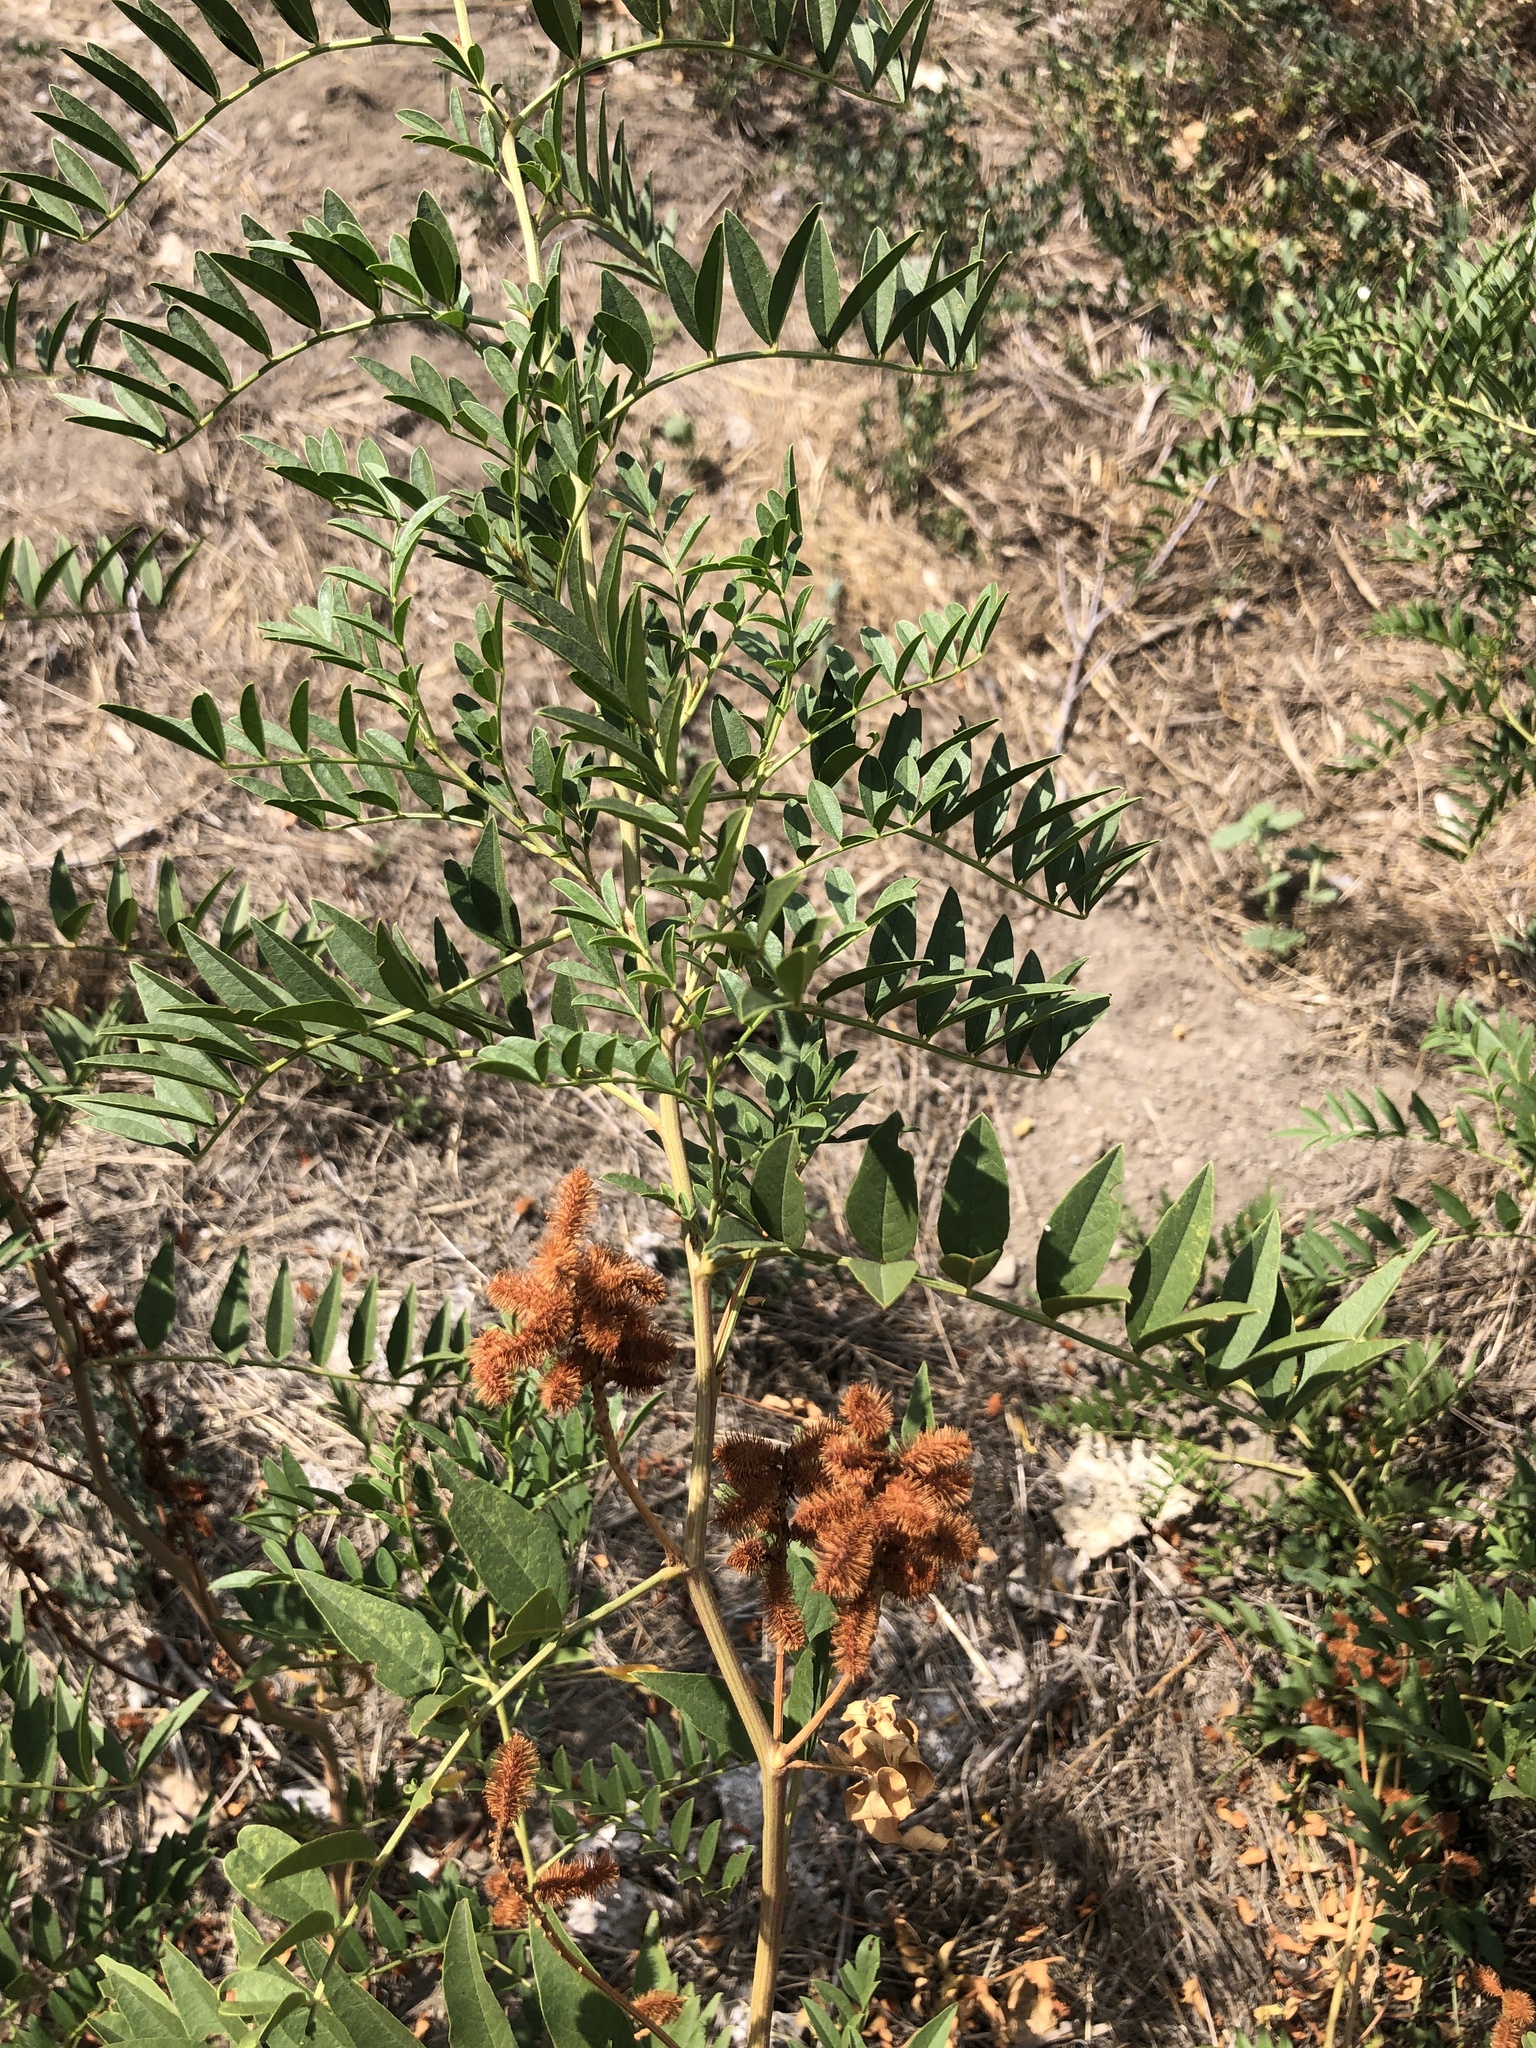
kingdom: Plantae
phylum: Tracheophyta
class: Magnoliopsida
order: Fabales
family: Fabaceae
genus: Glycyrrhiza
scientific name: Glycyrrhiza lepidota
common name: American liquorice
